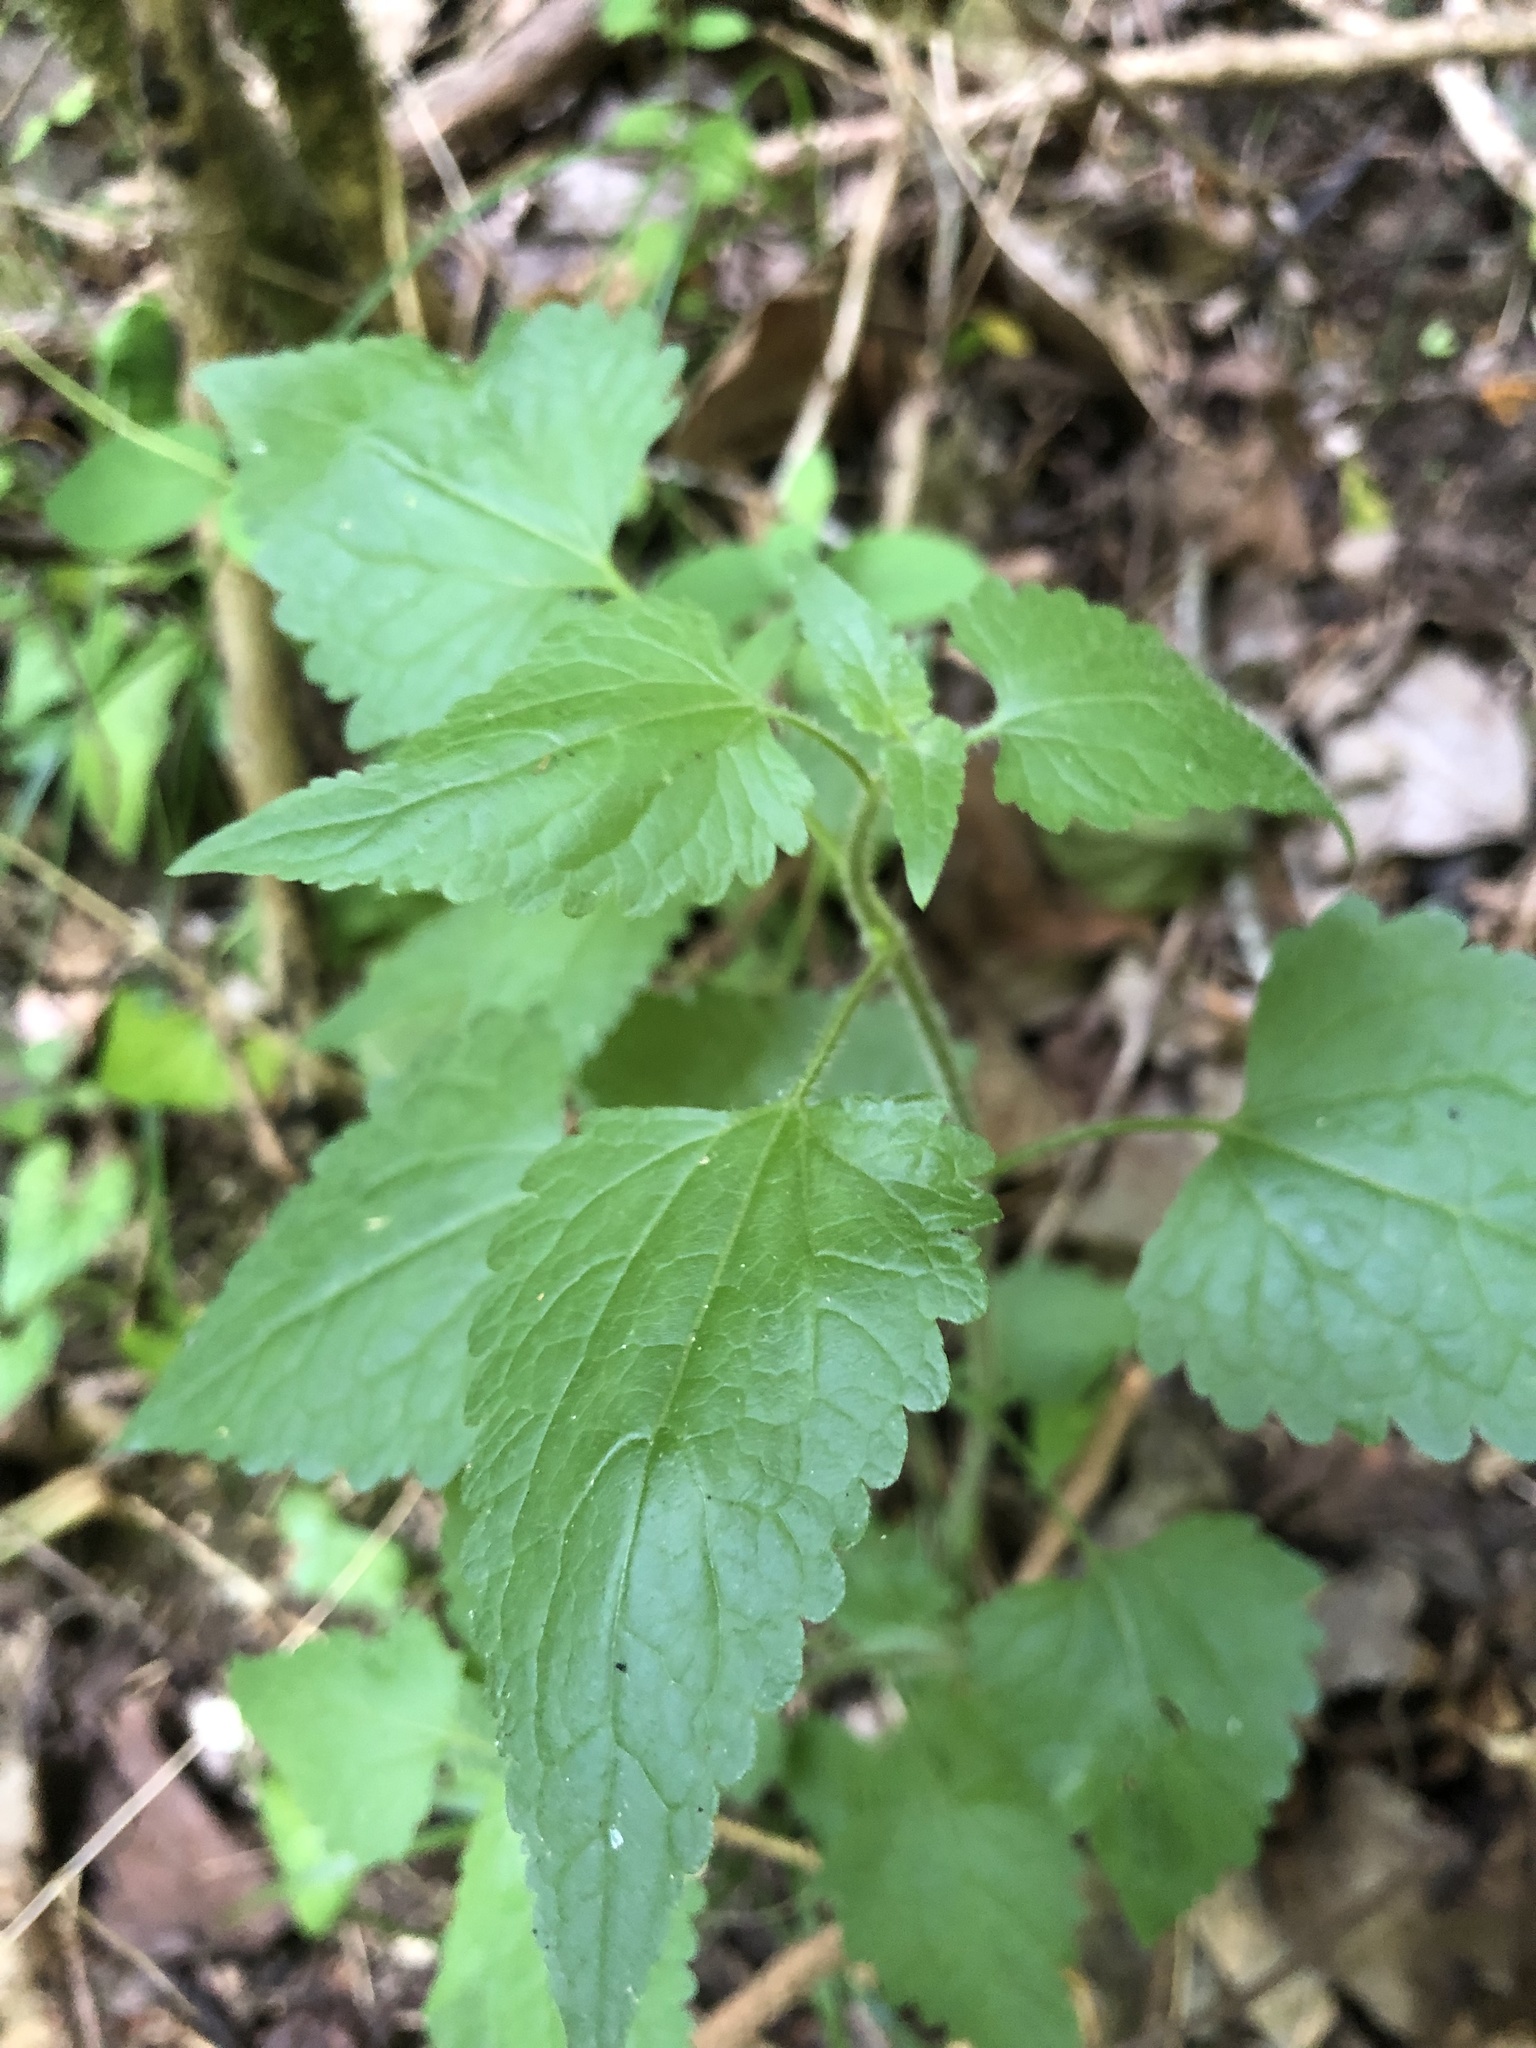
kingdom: Plantae
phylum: Tracheophyta
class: Magnoliopsida
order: Asterales
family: Asteraceae
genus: Fleischmannia
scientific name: Fleischmannia incarnata
